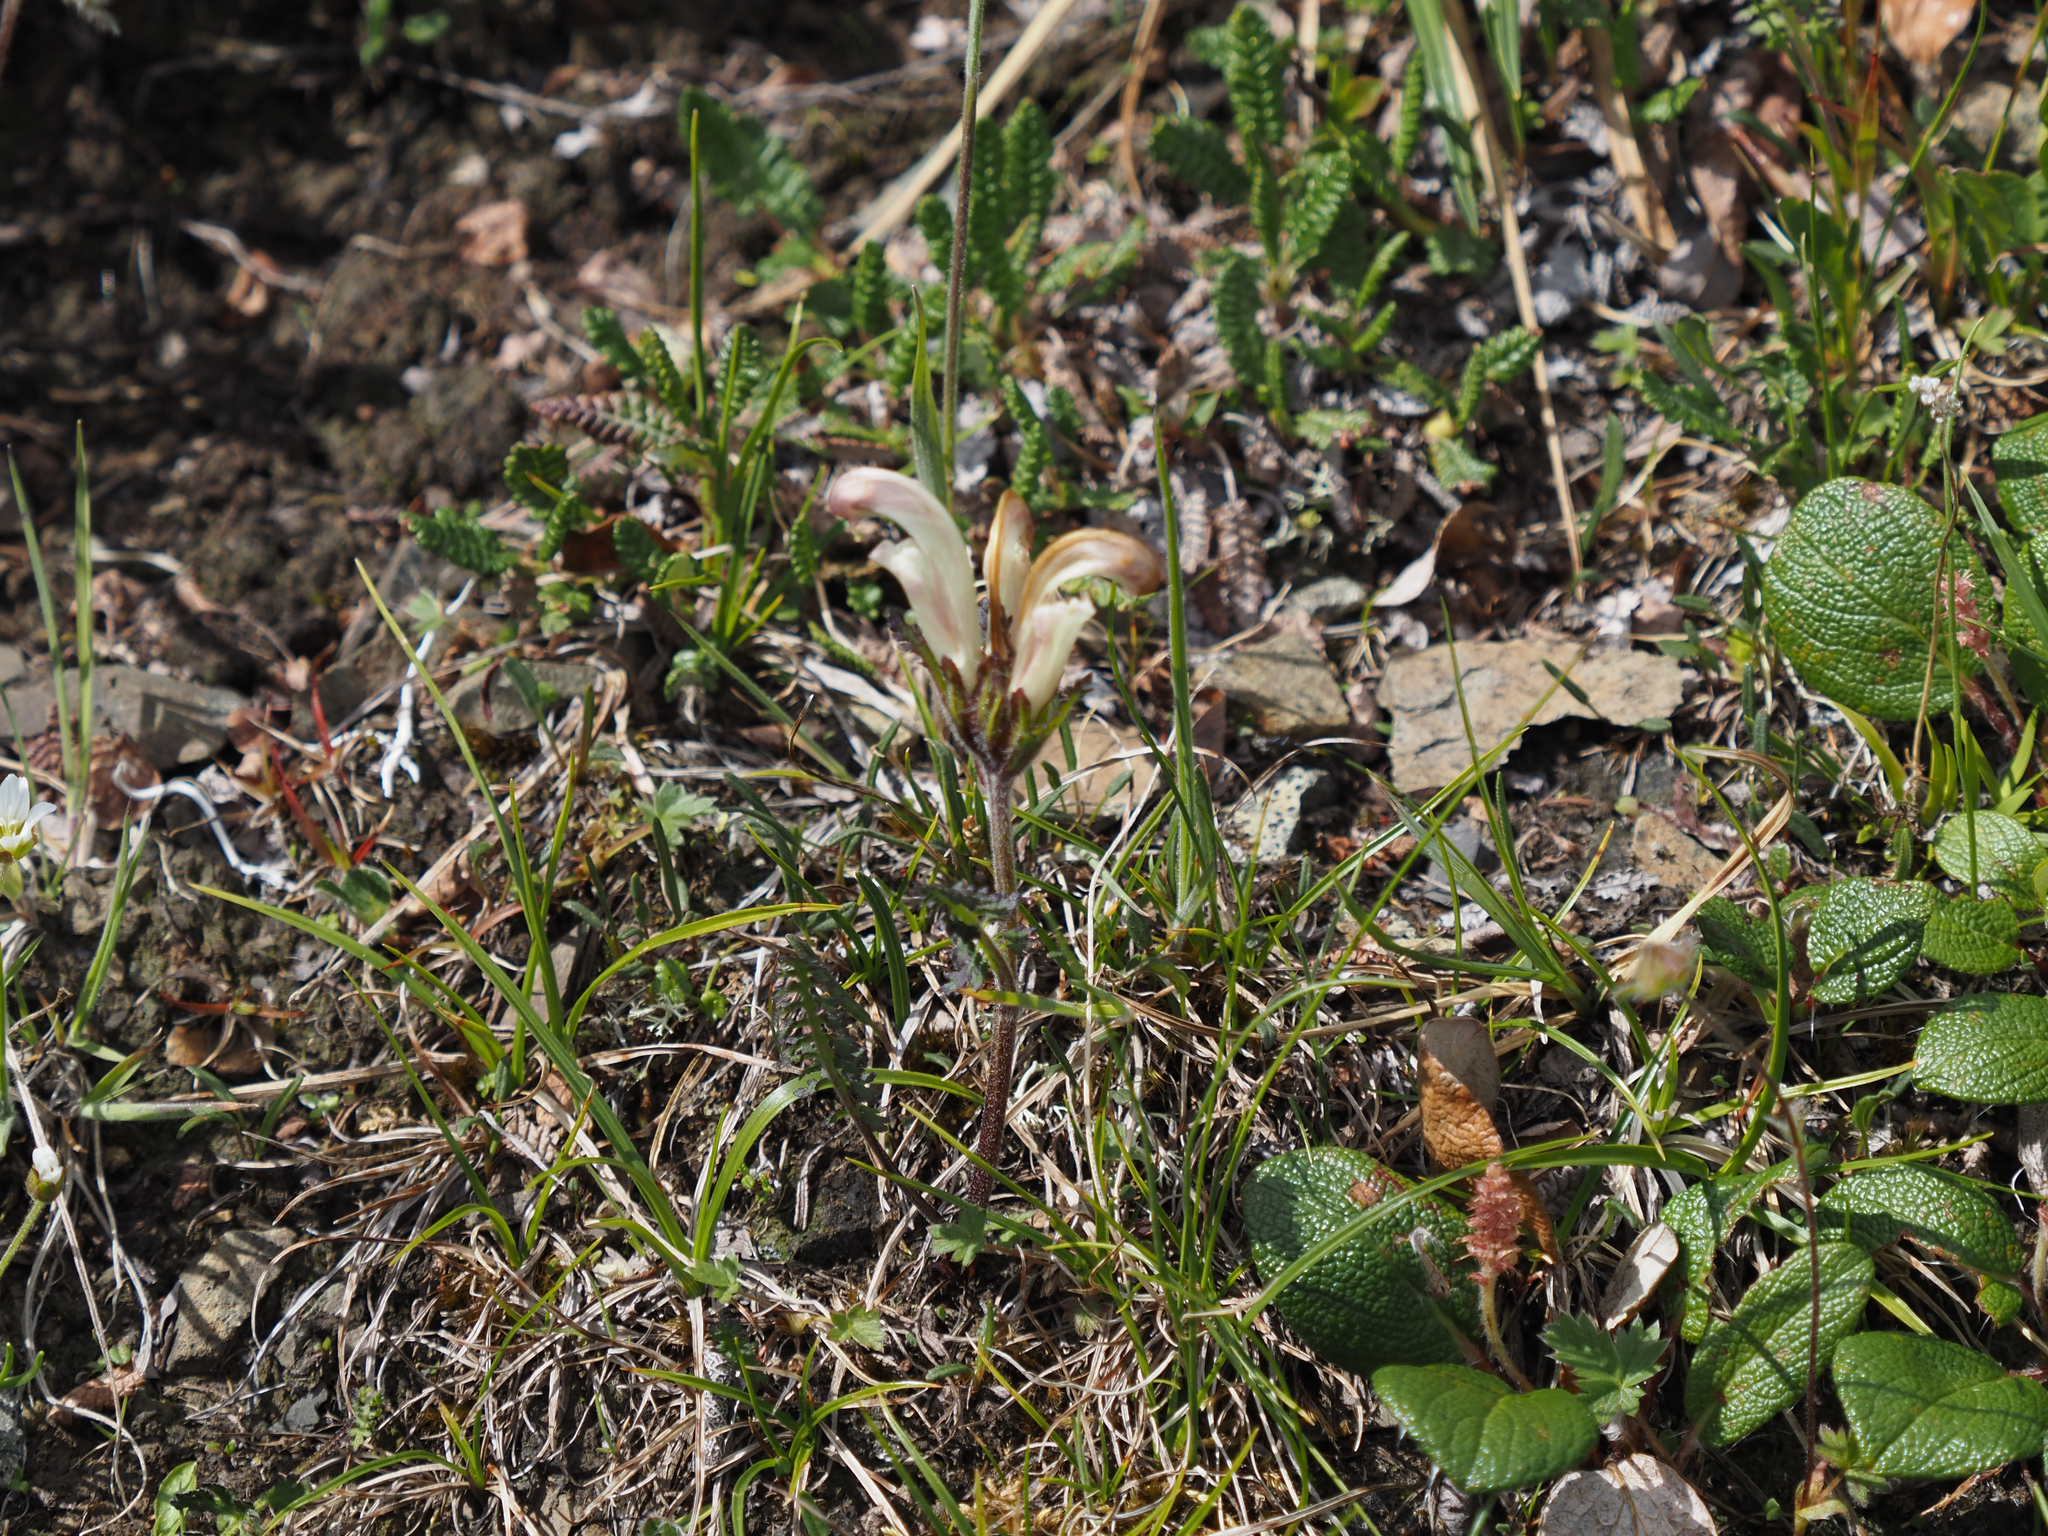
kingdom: Plantae
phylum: Tracheophyta
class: Magnoliopsida
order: Lamiales
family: Orobanchaceae
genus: Pedicularis
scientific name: Pedicularis capitata
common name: Capitate lousewort
